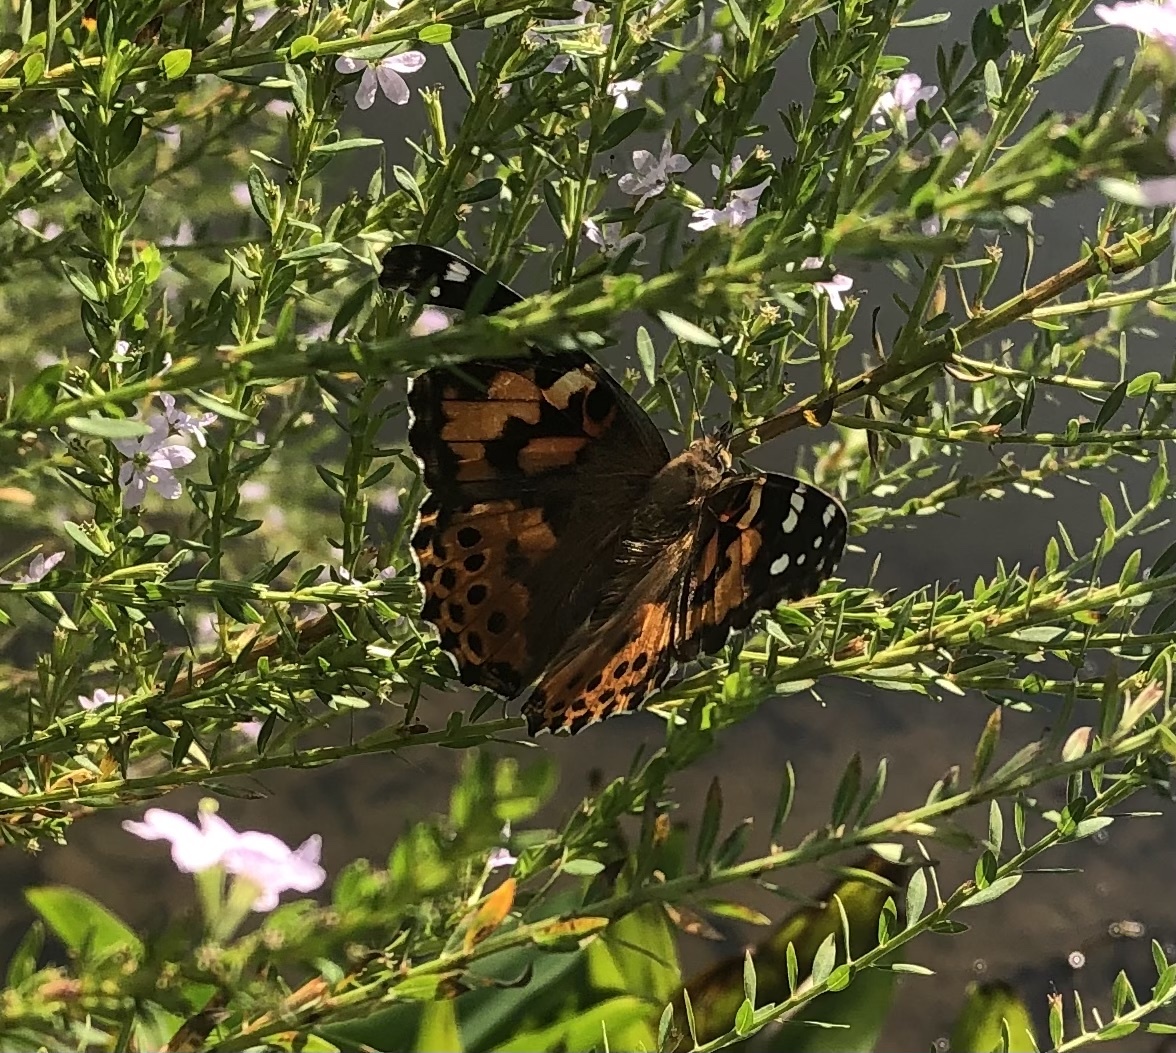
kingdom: Animalia
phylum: Arthropoda
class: Insecta
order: Lepidoptera
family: Nymphalidae
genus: Vanessa
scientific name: Vanessa cardui
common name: Painted lady
